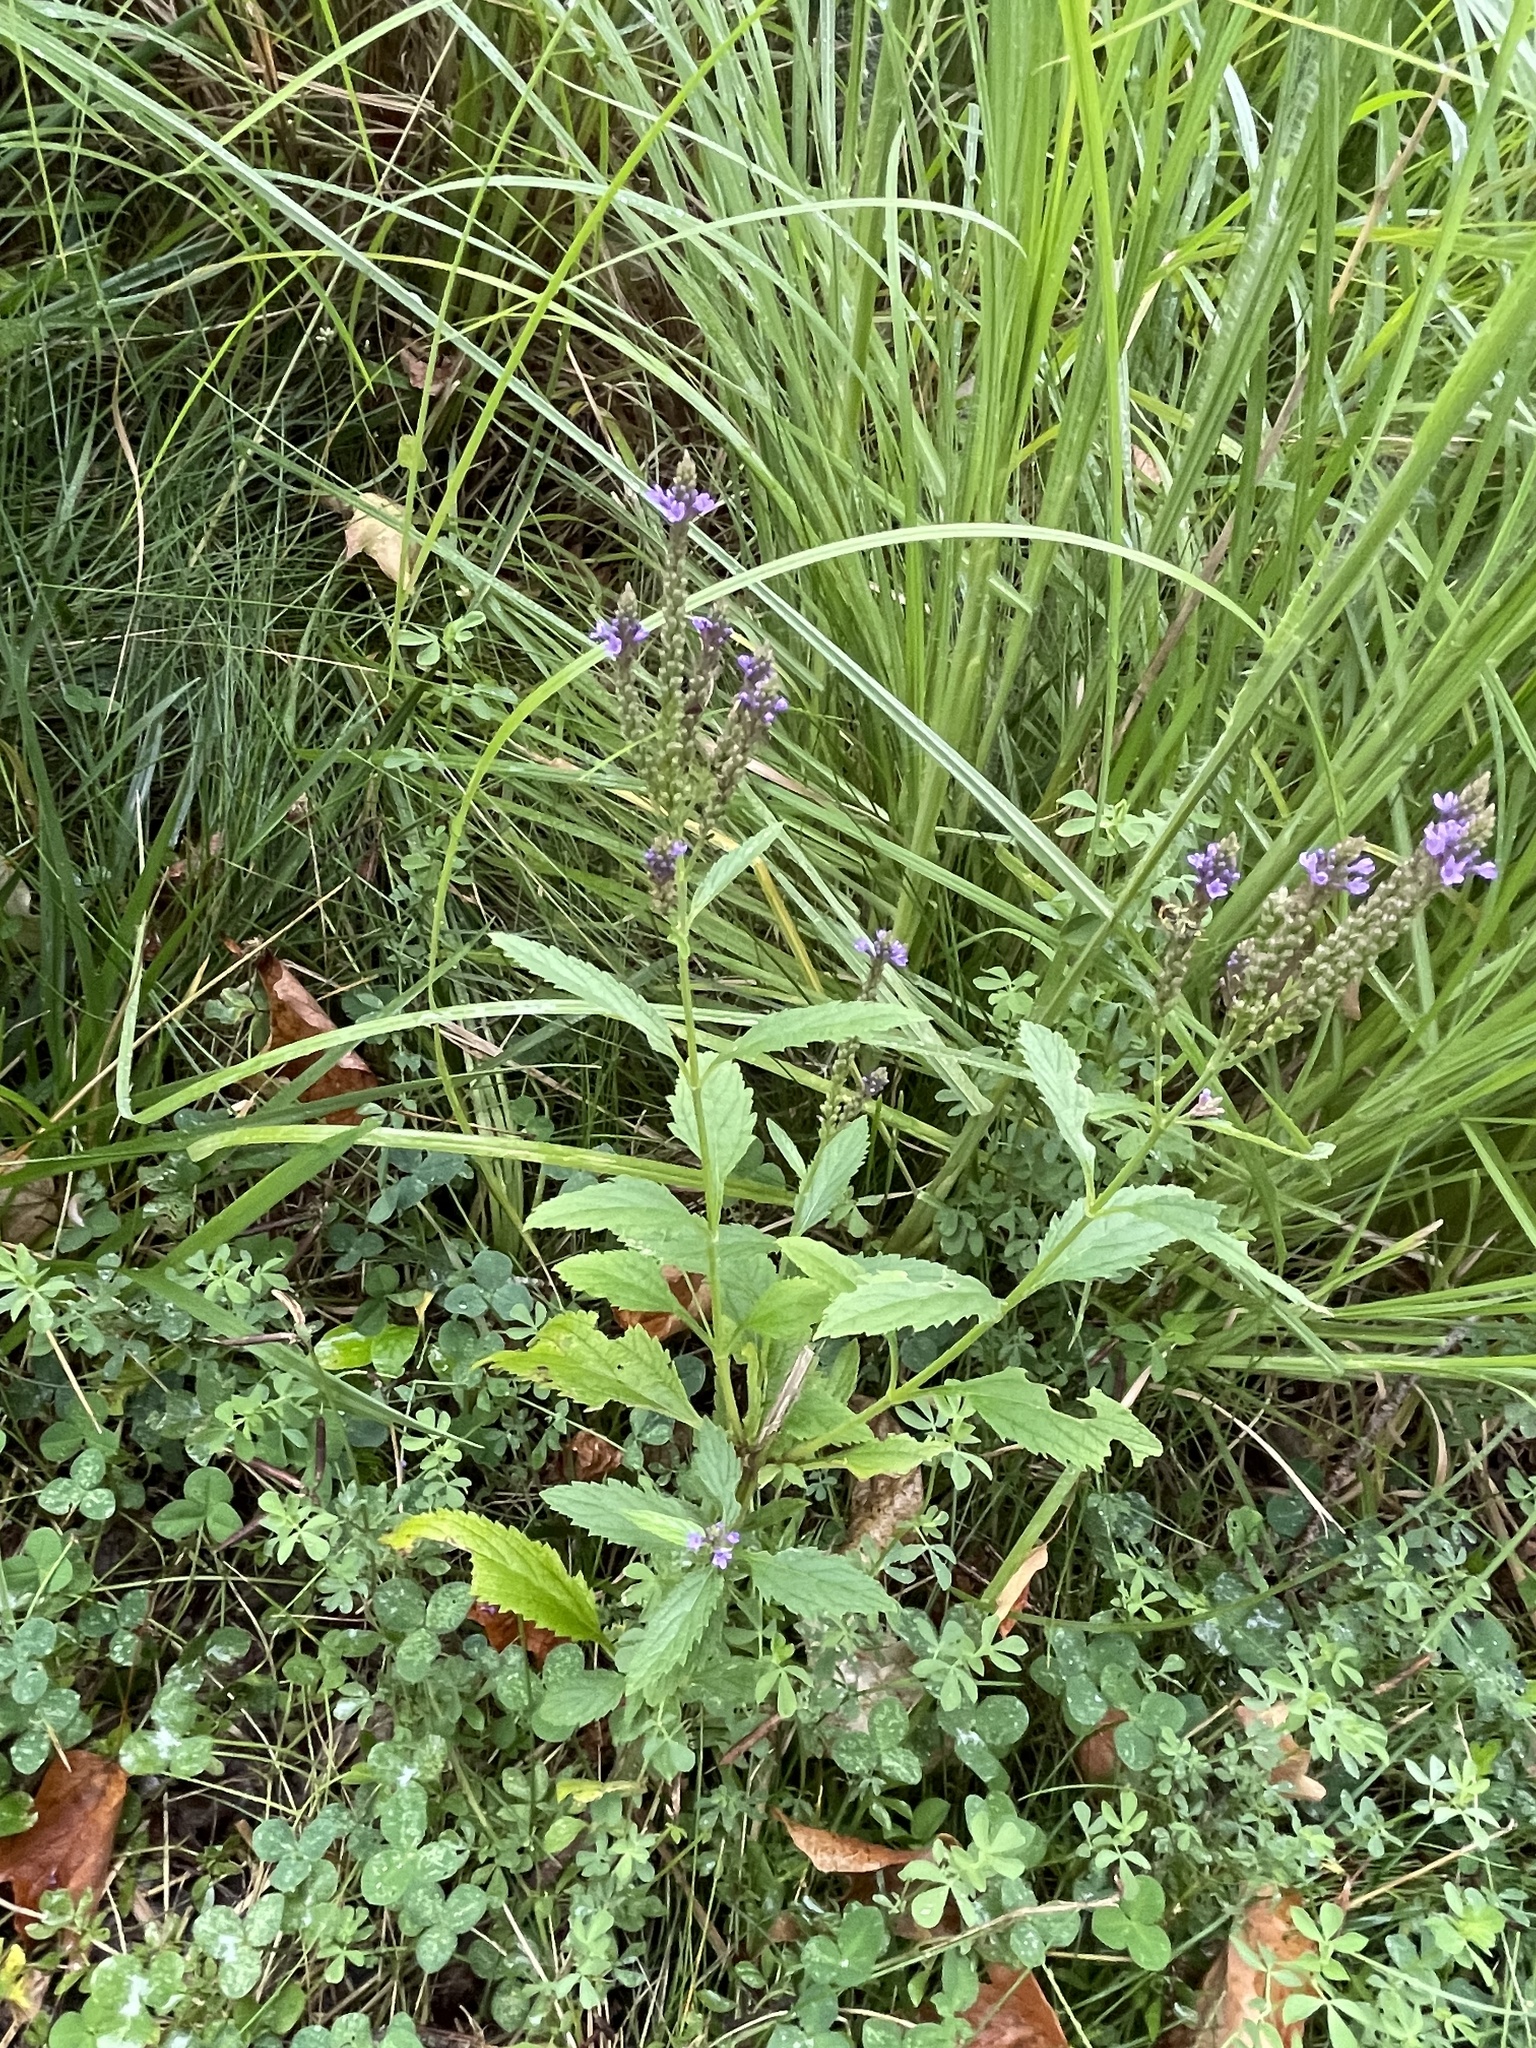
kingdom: Plantae
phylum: Tracheophyta
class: Magnoliopsida
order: Lamiales
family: Verbenaceae
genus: Verbena
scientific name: Verbena hastata
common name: American blue vervain
